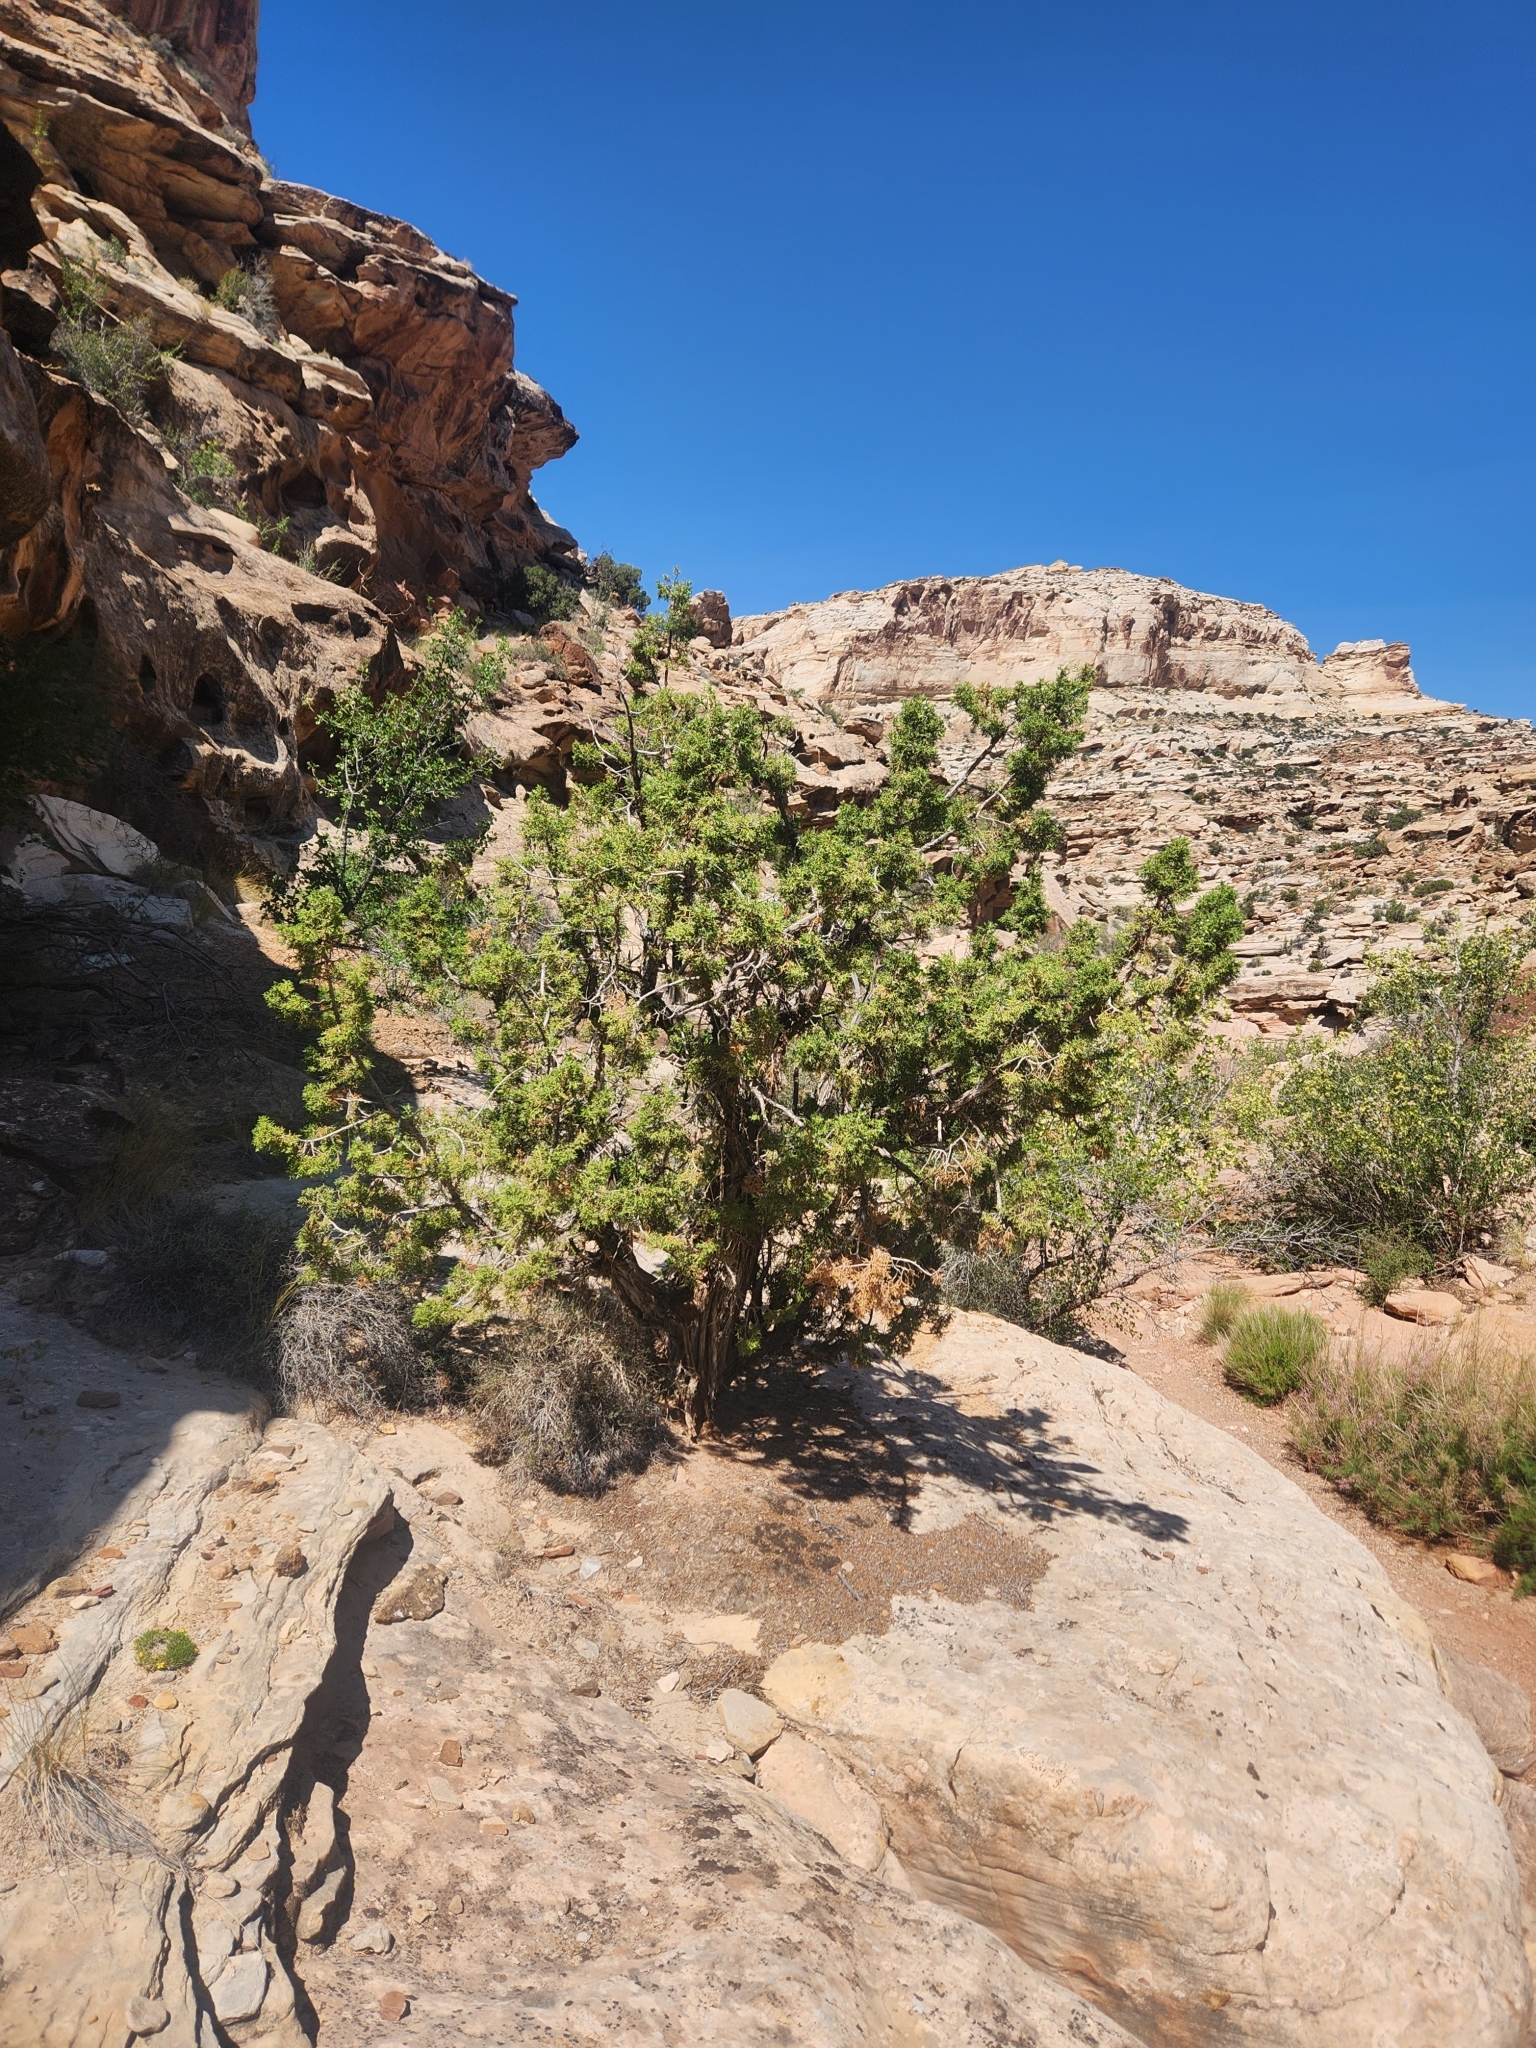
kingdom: Plantae
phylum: Tracheophyta
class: Pinopsida
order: Pinales
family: Cupressaceae
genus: Juniperus
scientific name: Juniperus osteosperma
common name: Utah juniper
